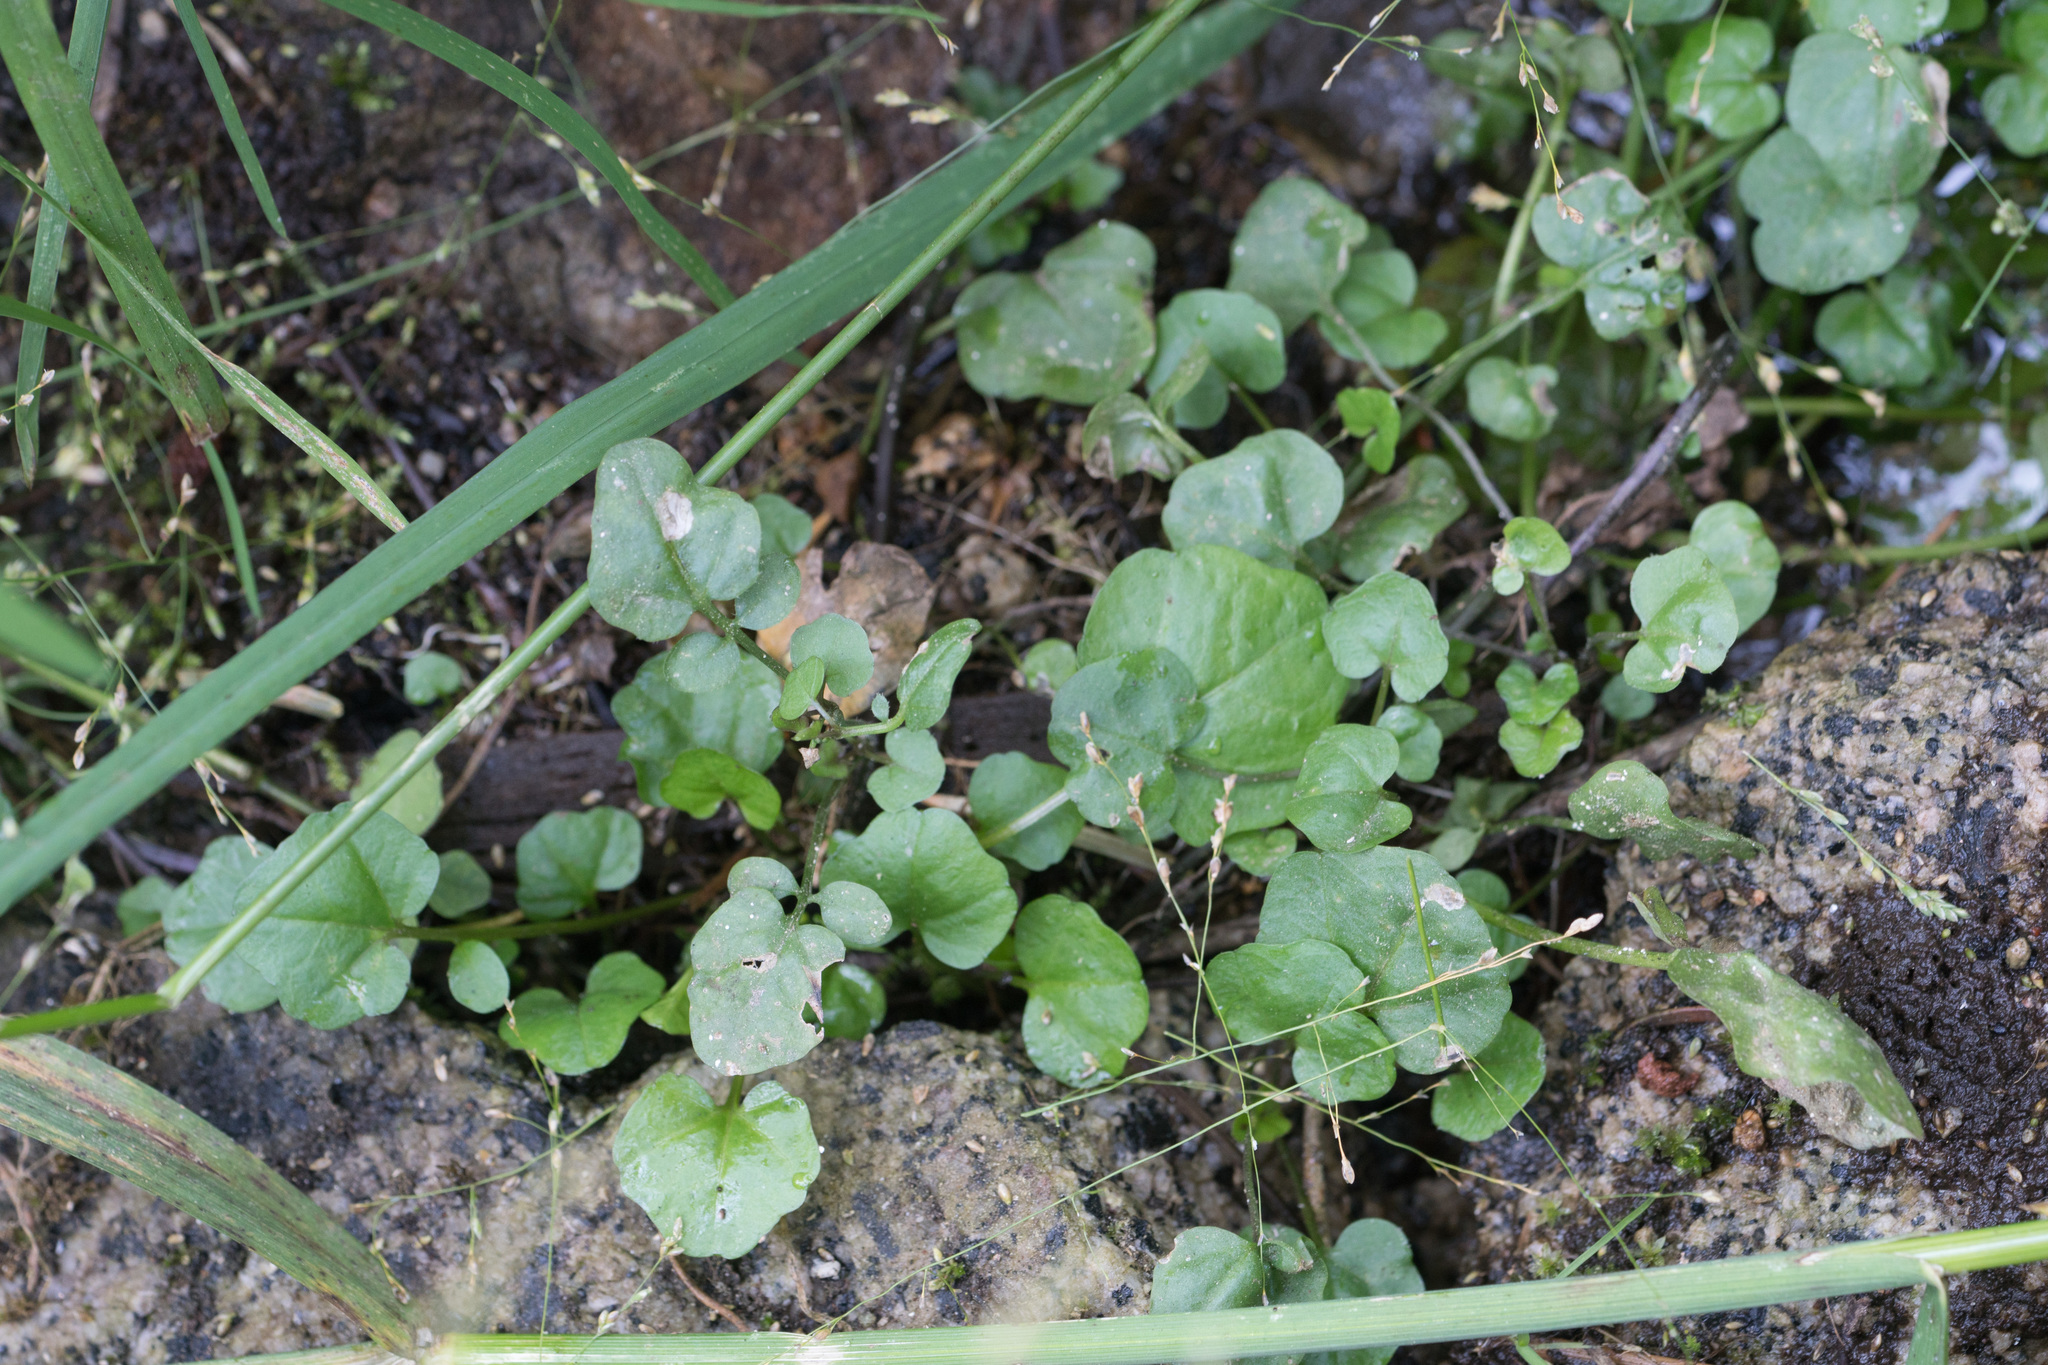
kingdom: Plantae
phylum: Tracheophyta
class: Magnoliopsida
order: Brassicales
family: Brassicaceae
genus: Nasturtium
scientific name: Nasturtium officinale
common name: Watercress
